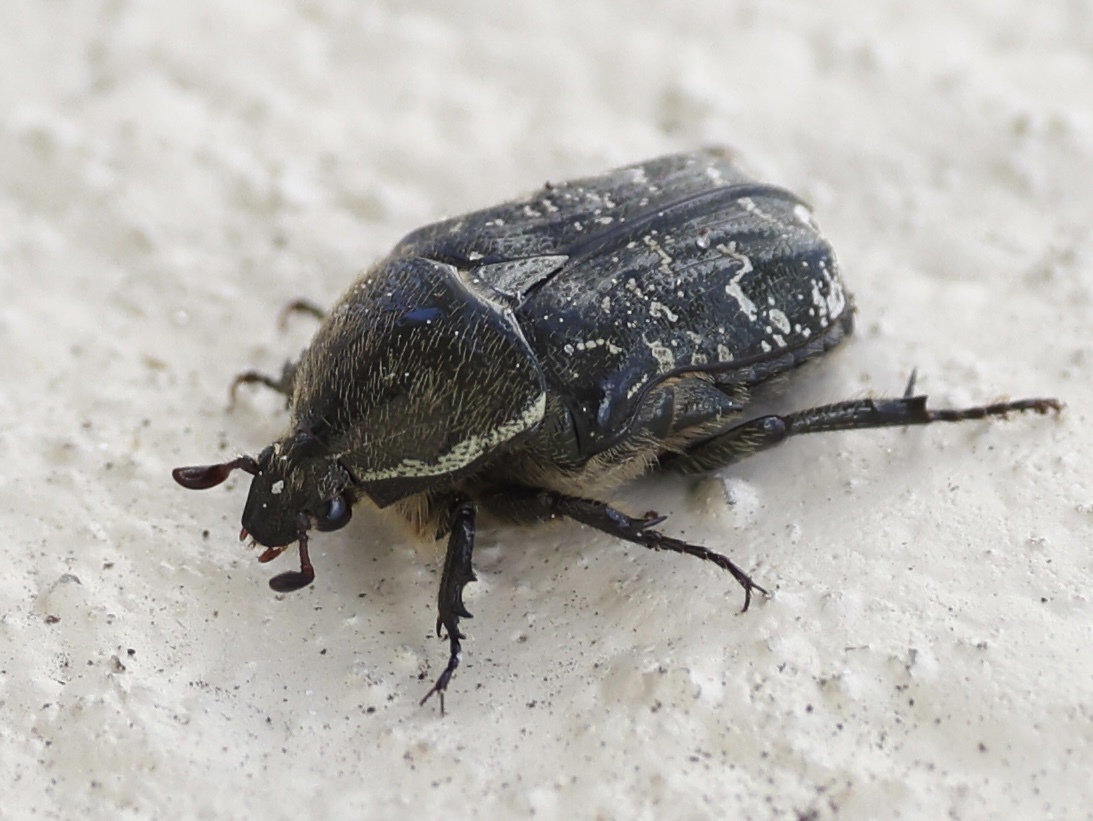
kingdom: Animalia
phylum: Arthropoda
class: Insecta
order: Coleoptera
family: Scarabaeidae
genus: Euphoria
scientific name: Euphoria sepulcralis
